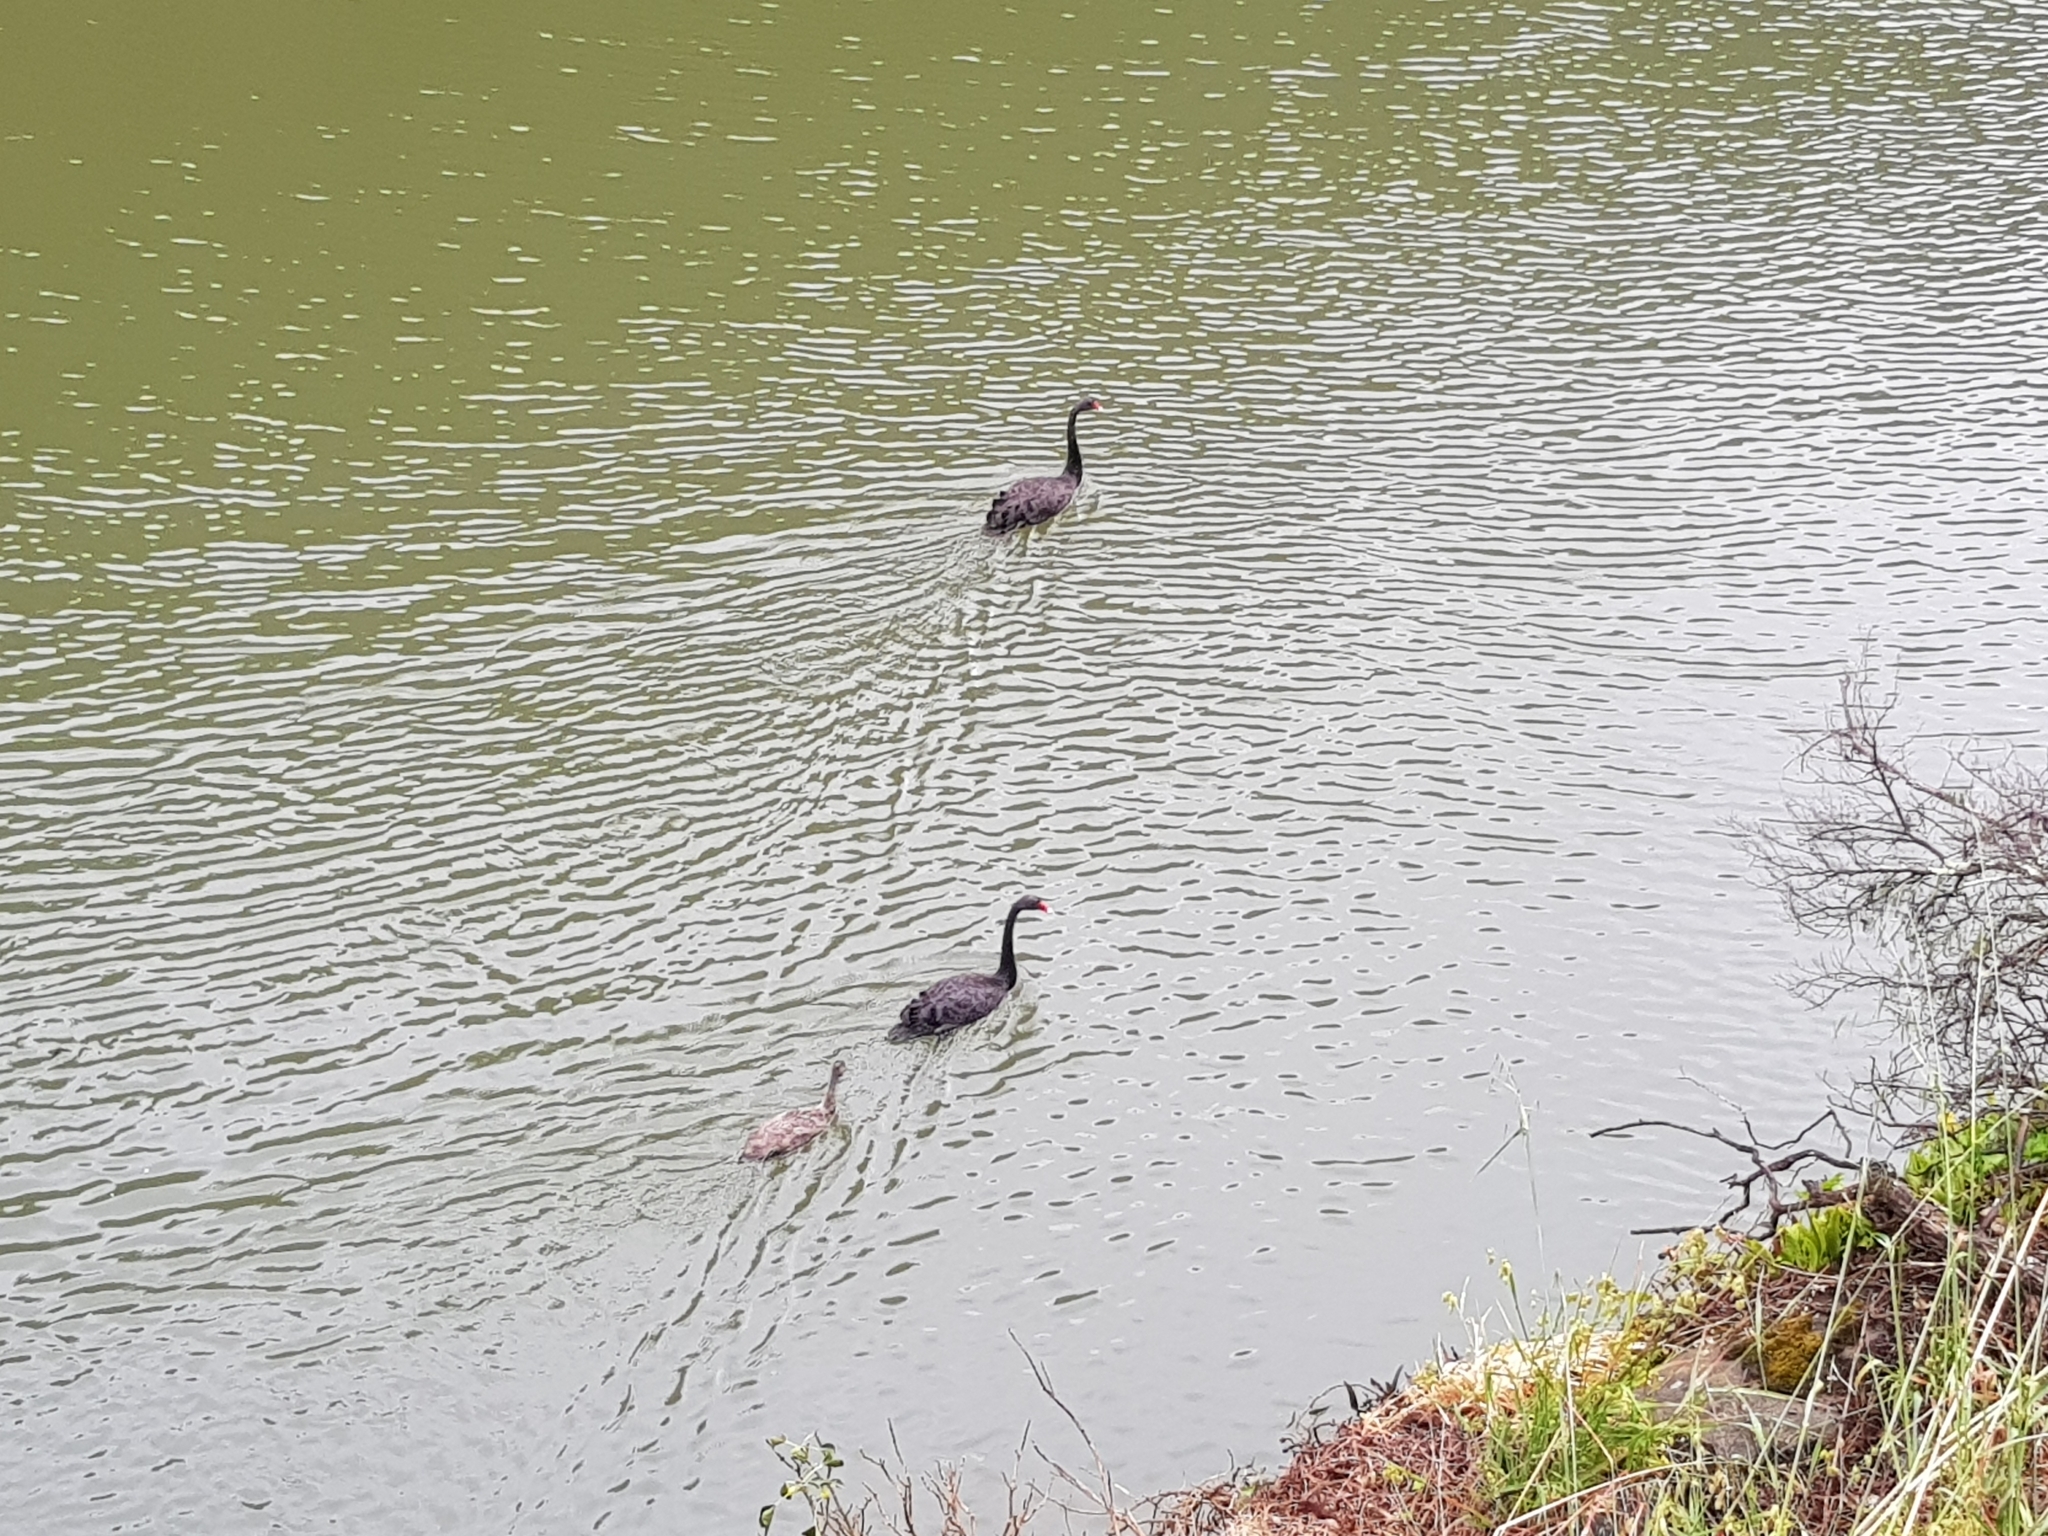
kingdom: Animalia
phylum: Chordata
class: Aves
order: Anseriformes
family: Anatidae
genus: Cygnus
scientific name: Cygnus atratus
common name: Black swan
